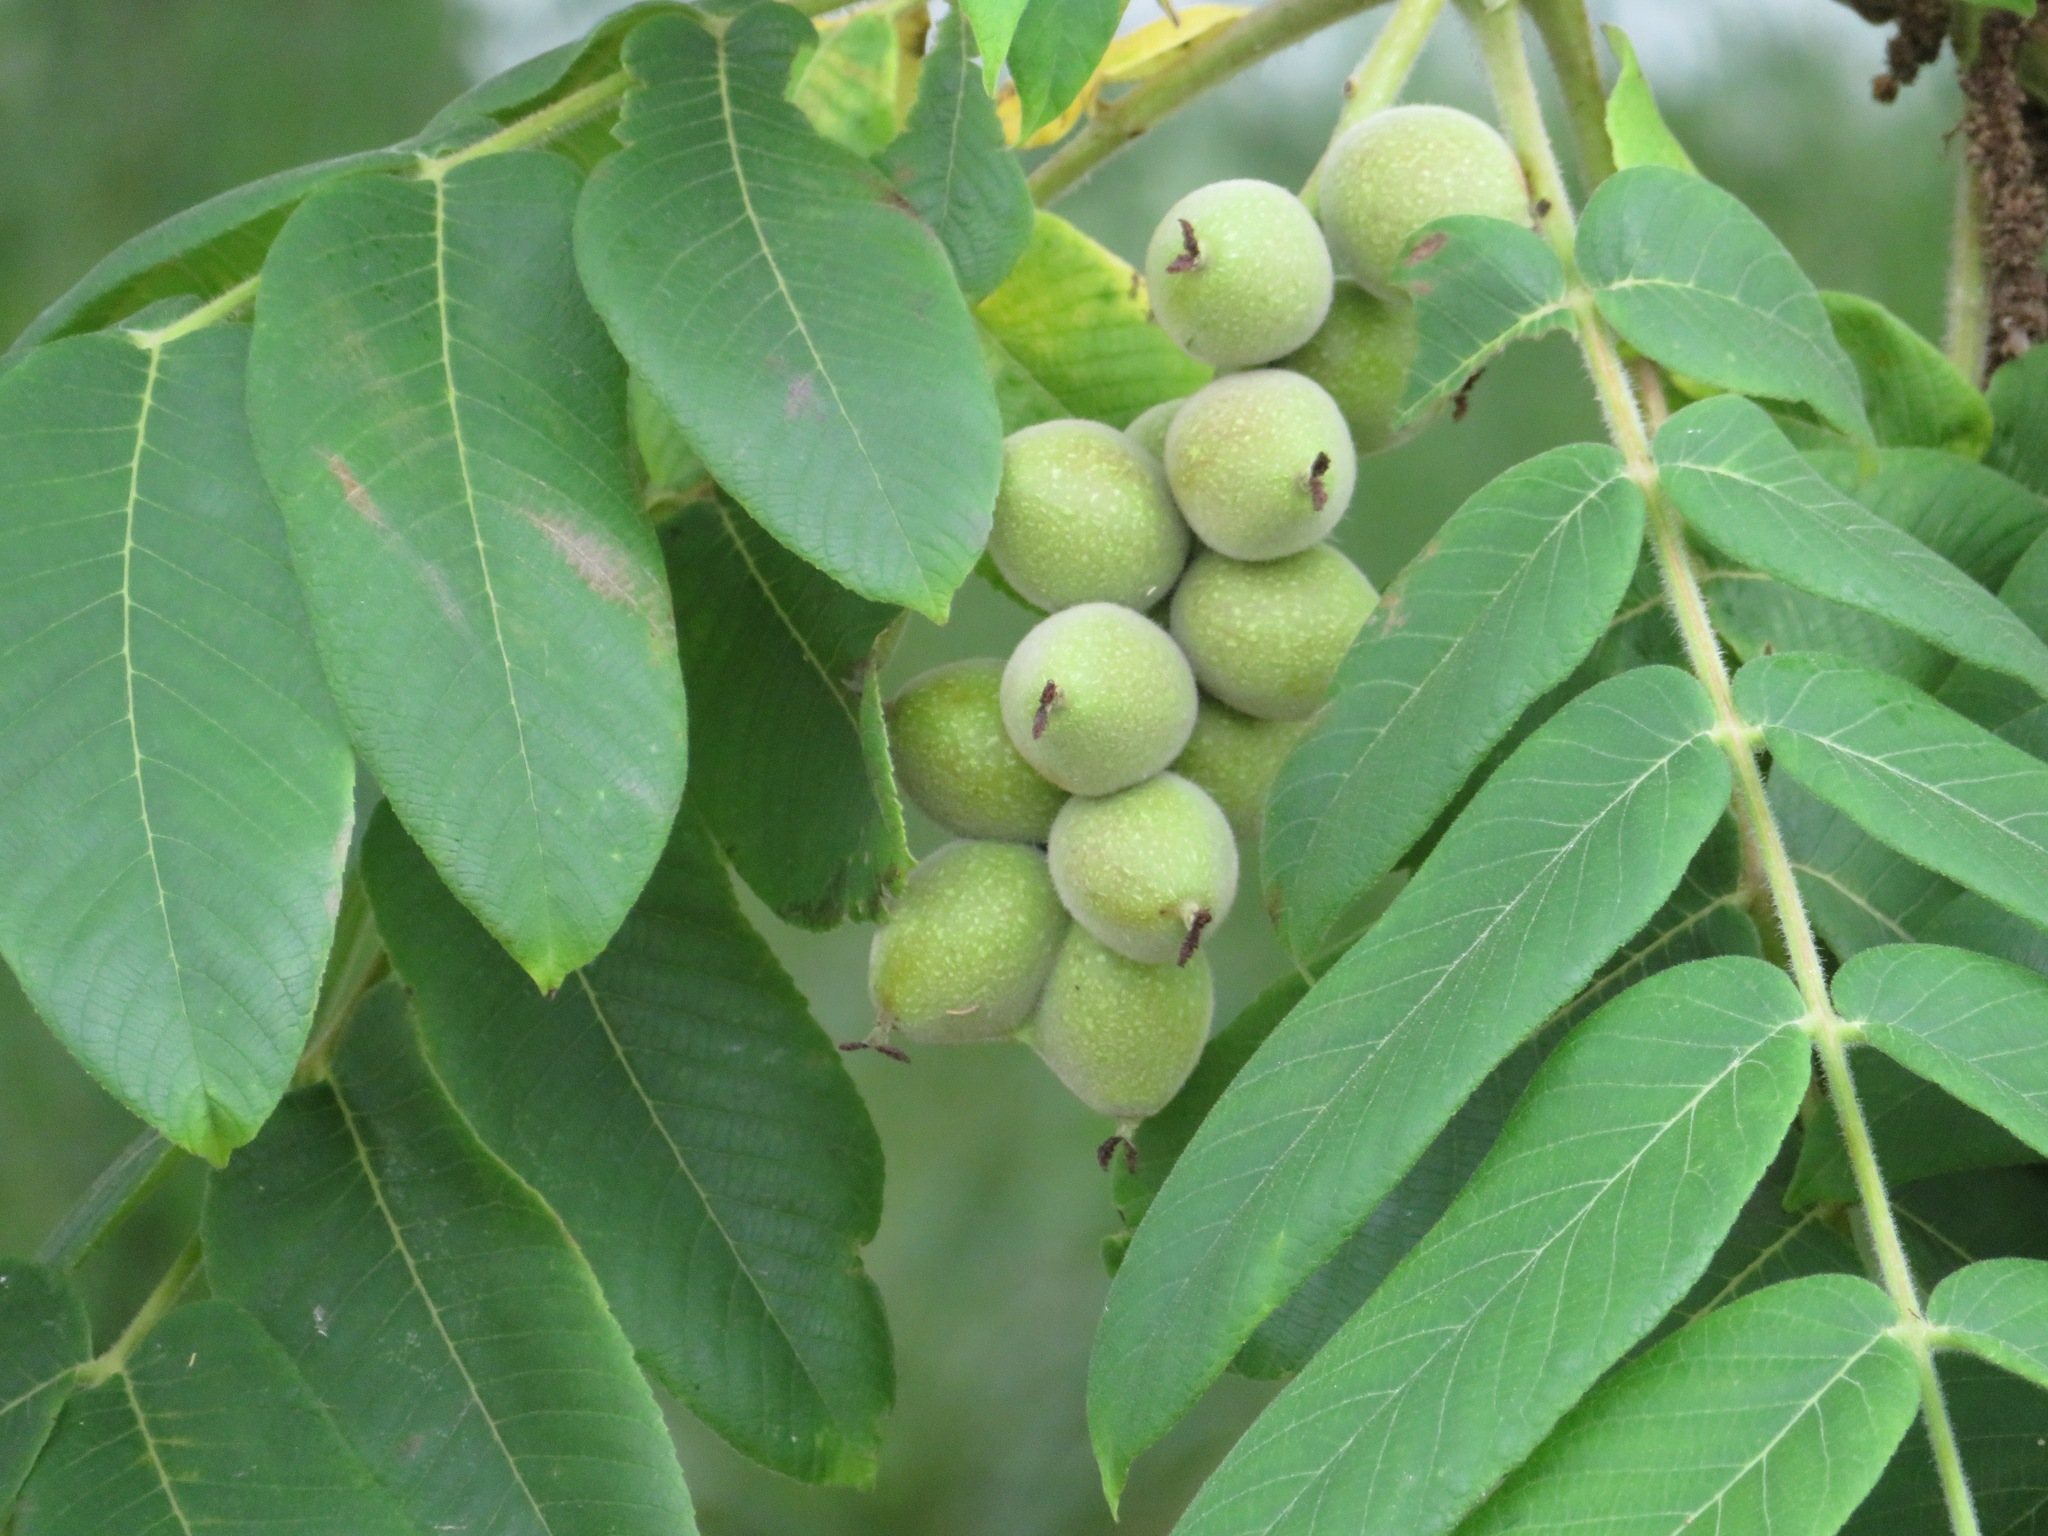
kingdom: Plantae
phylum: Tracheophyta
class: Magnoliopsida
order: Fagales
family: Juglandaceae
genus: Juglans
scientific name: Juglans ailantifolia
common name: Japanese walnut
